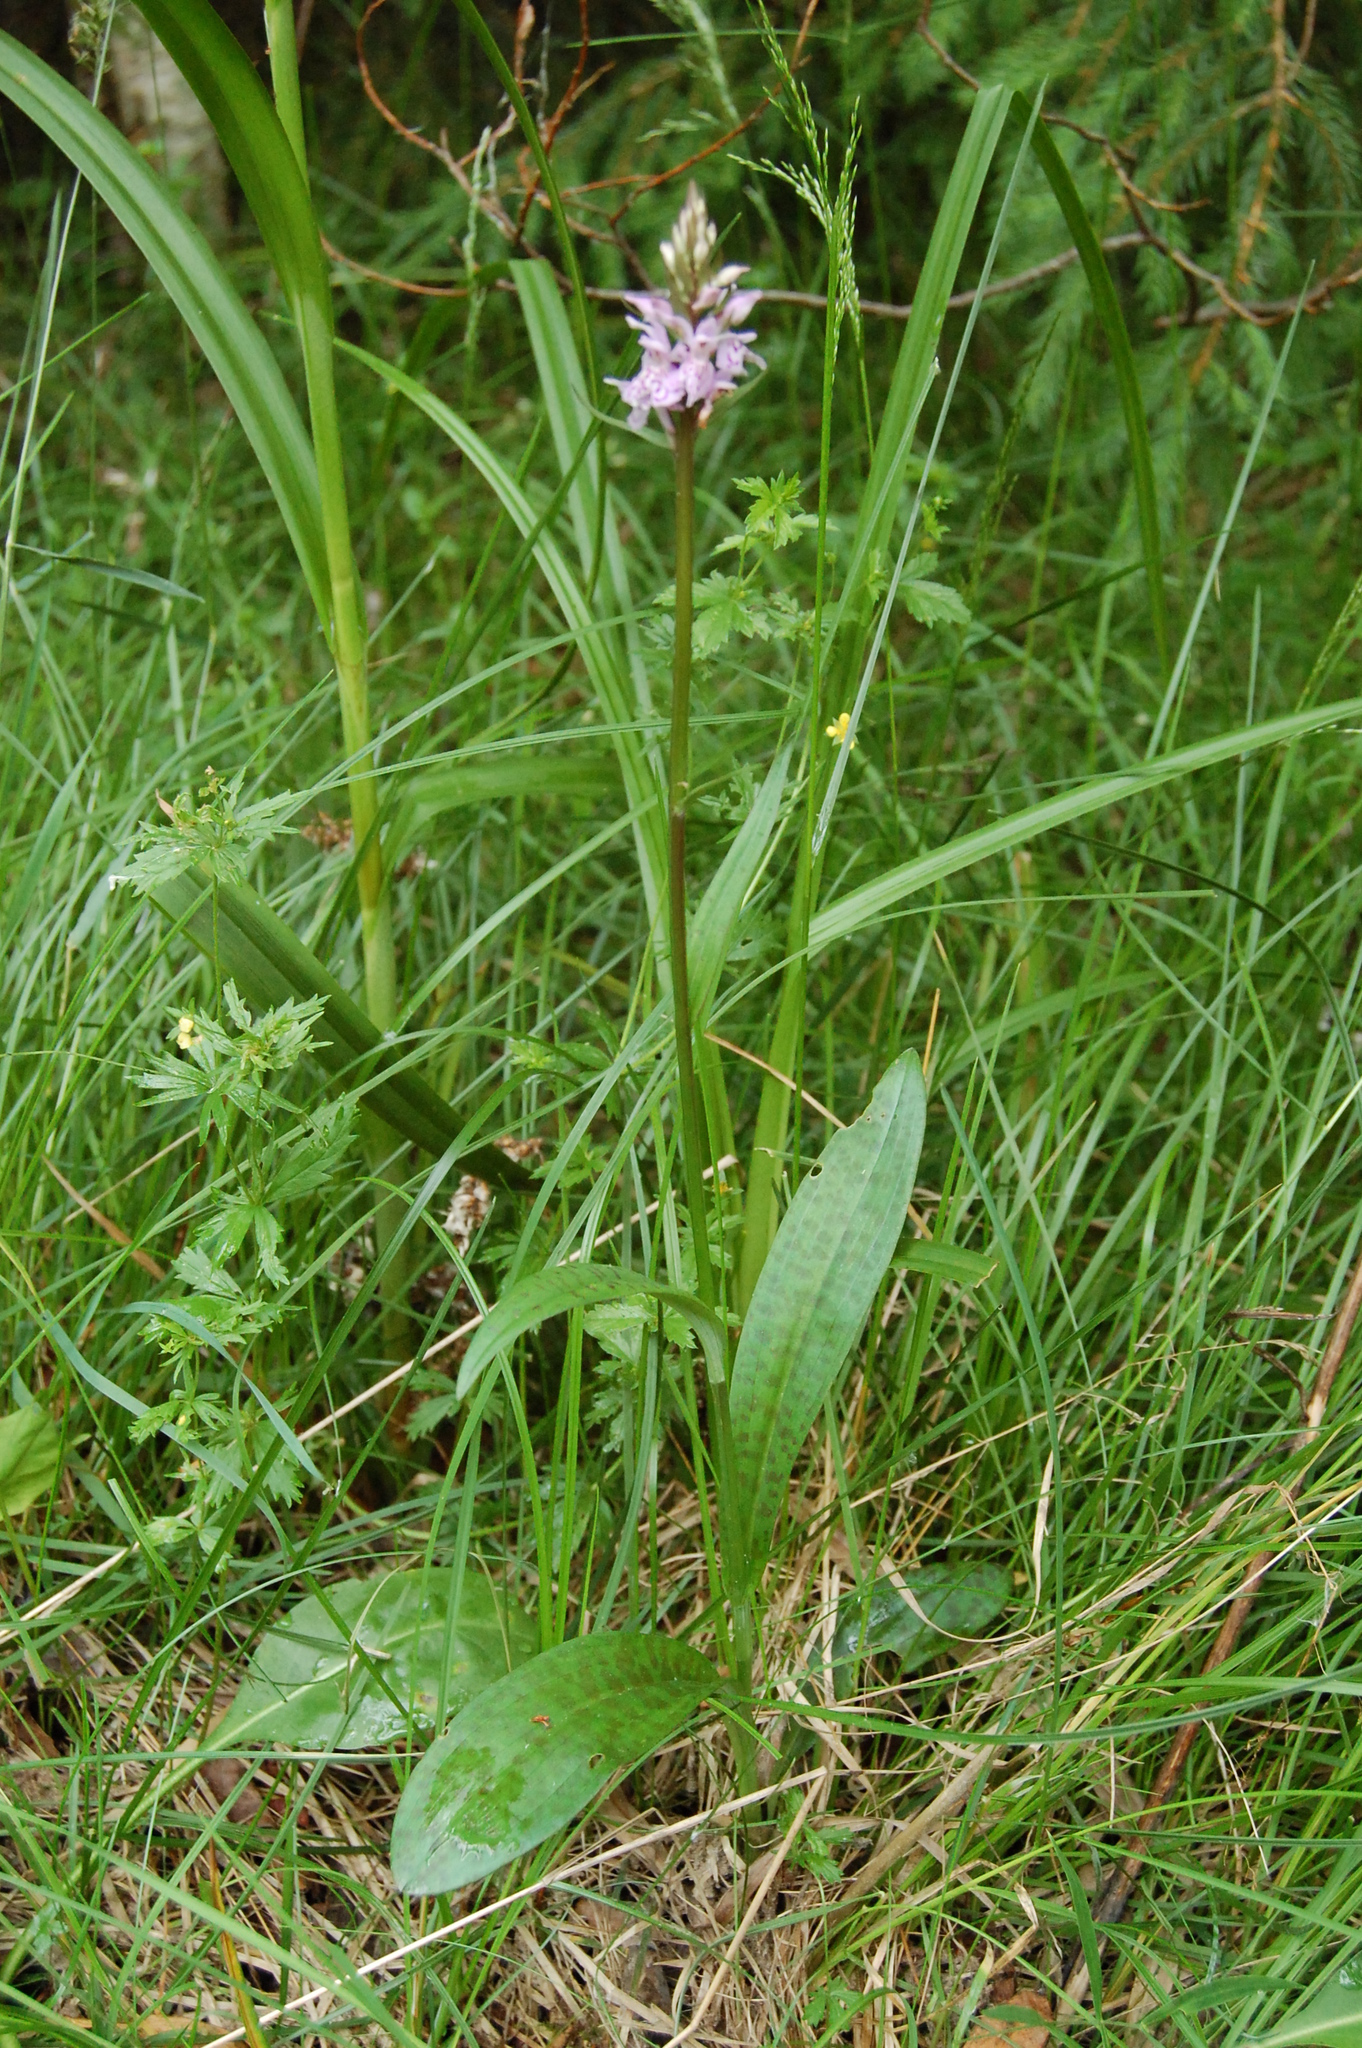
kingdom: Plantae
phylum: Tracheophyta
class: Liliopsida
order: Asparagales
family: Orchidaceae
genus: Dactylorhiza
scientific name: Dactylorhiza maculata
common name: Heath spotted-orchid
